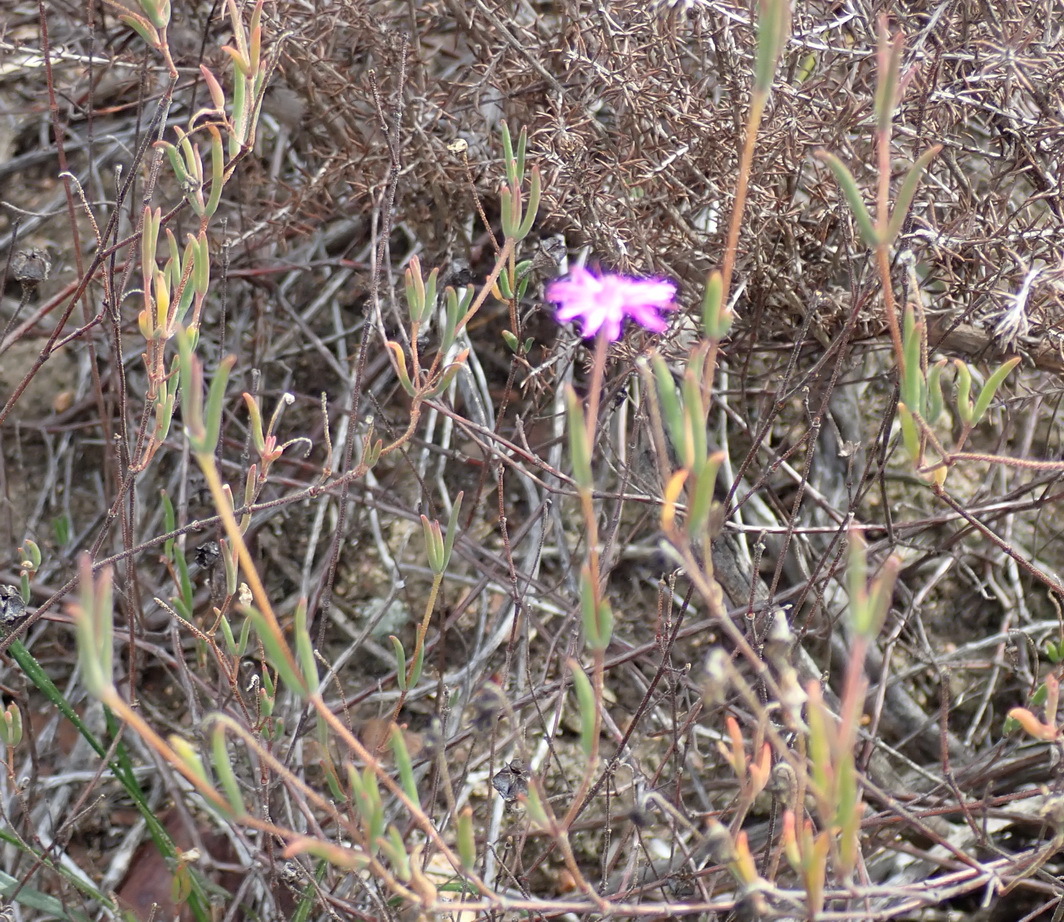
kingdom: Plantae
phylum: Tracheophyta
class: Magnoliopsida
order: Caryophyllales
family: Aizoaceae
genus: Drosanthemum
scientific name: Drosanthemum gracillimum
